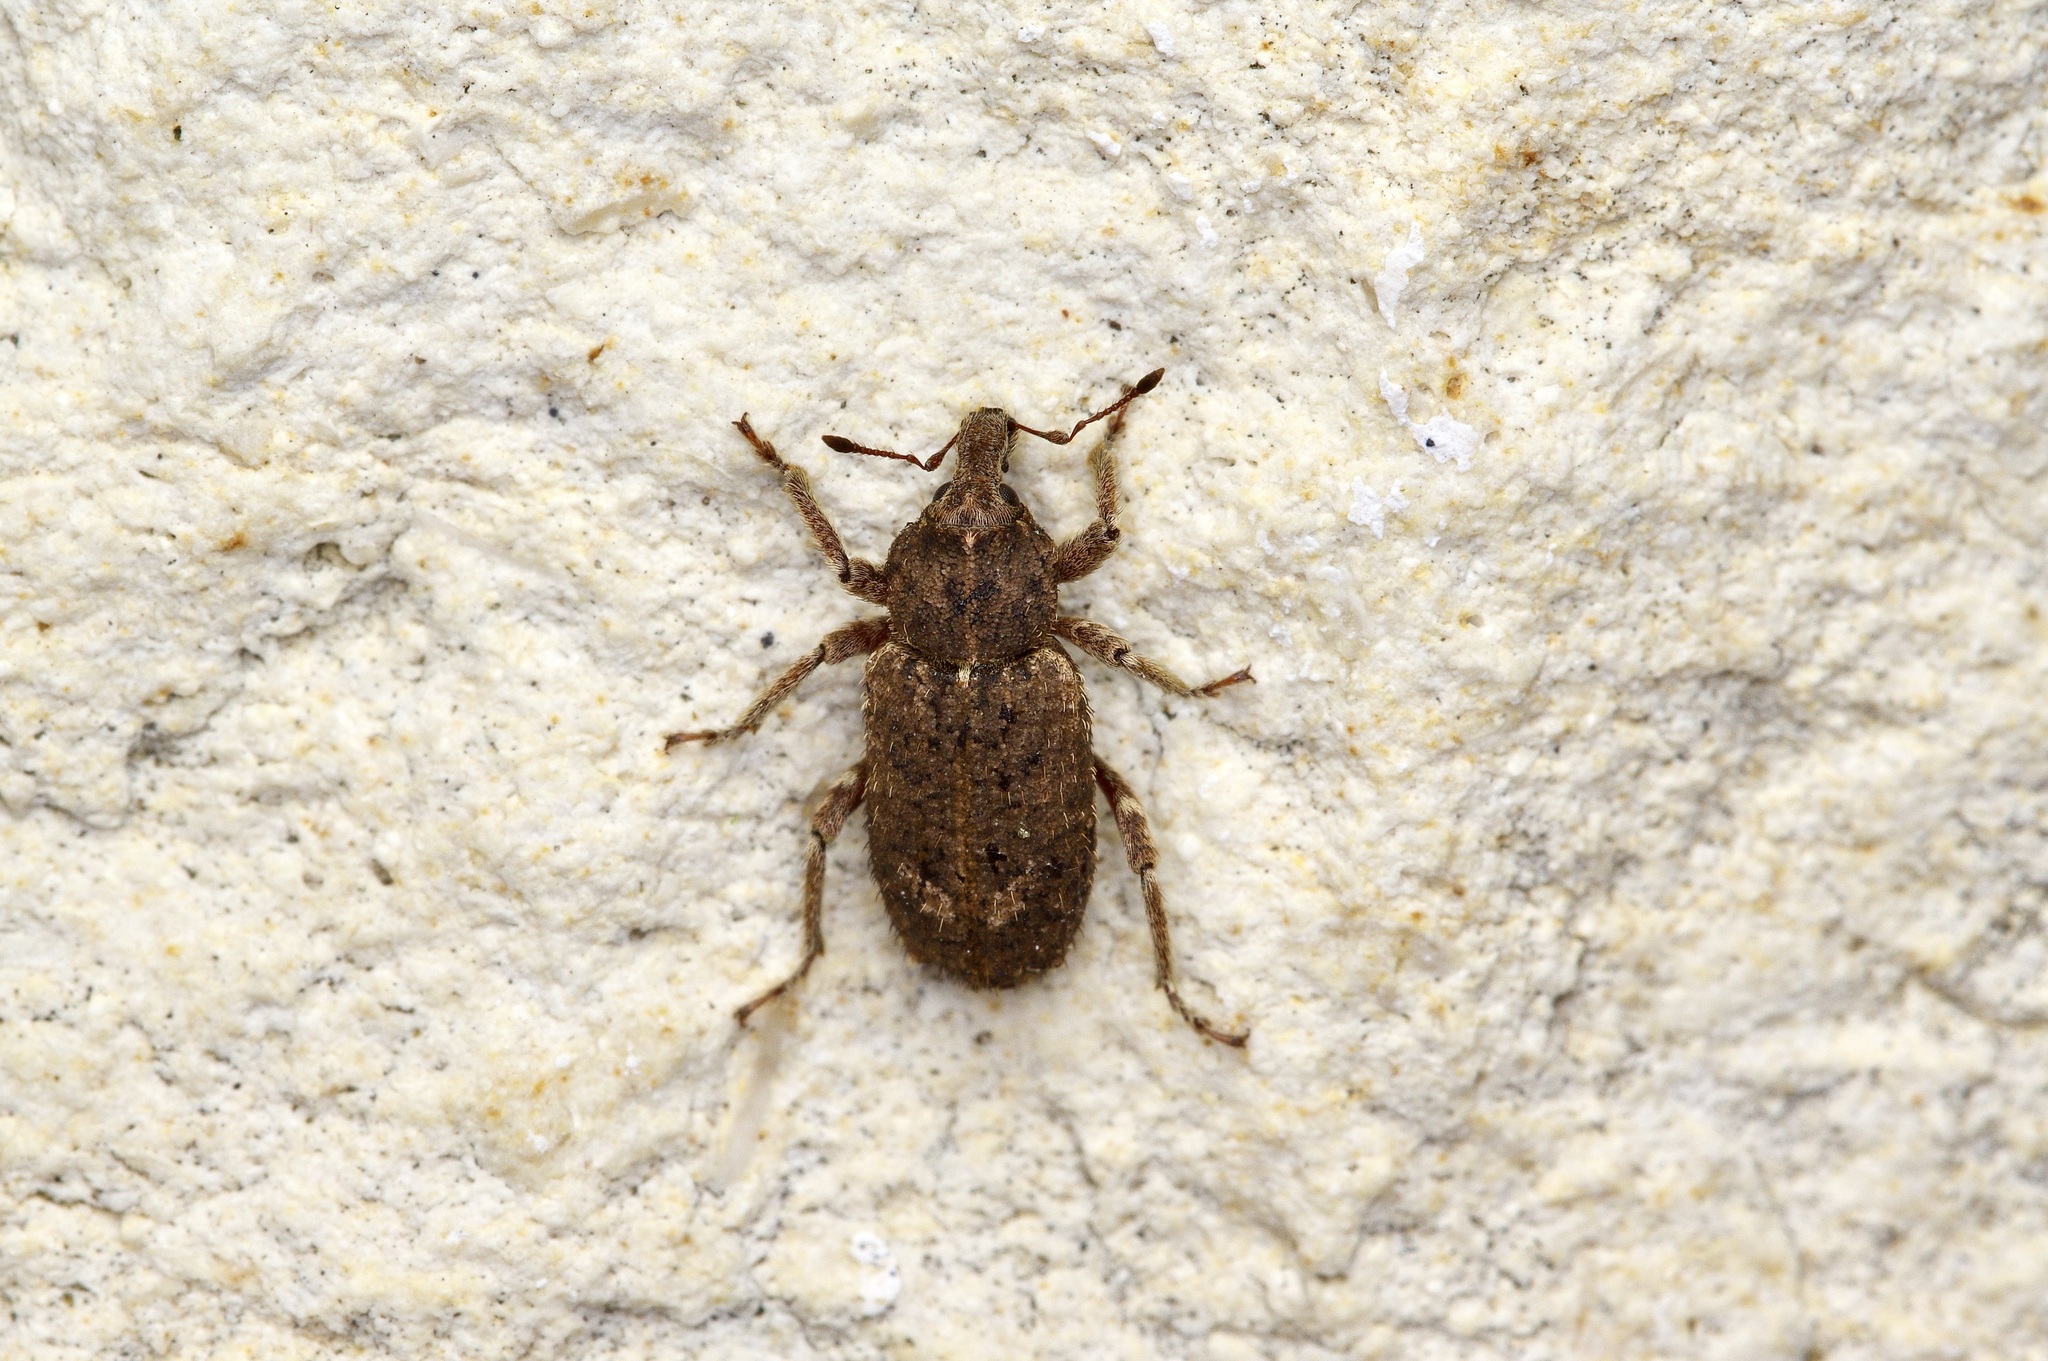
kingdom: Animalia
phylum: Arthropoda
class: Insecta
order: Coleoptera
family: Curculionidae
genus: Listroderes
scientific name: Listroderes costirostris
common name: Weevil
